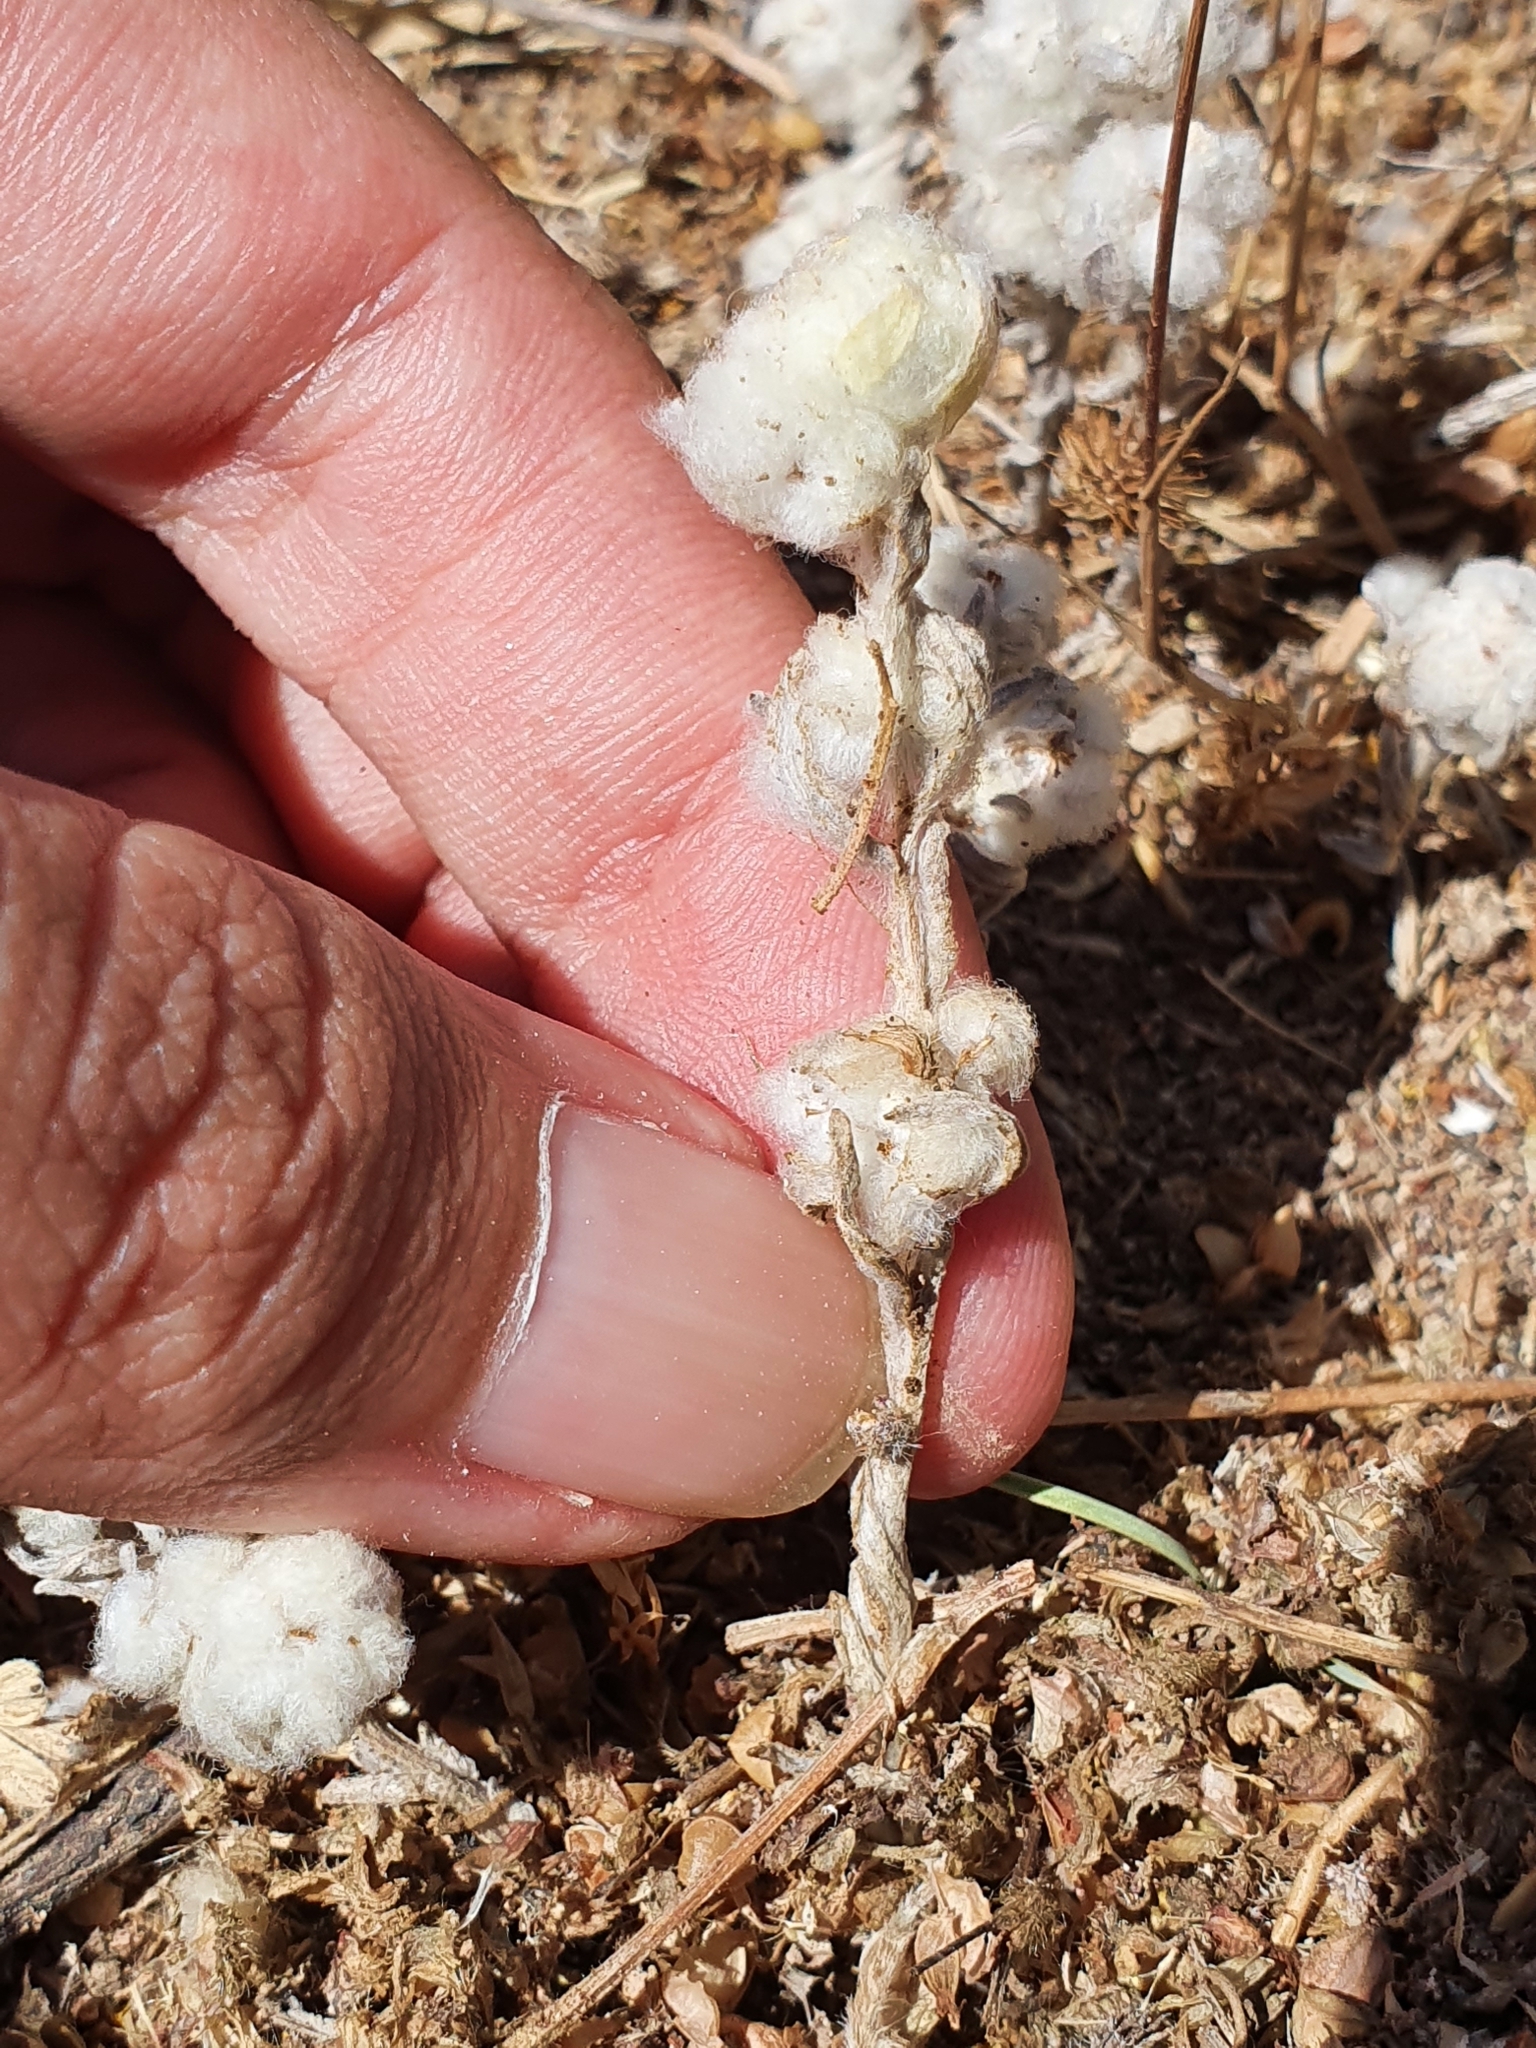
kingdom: Plantae
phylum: Tracheophyta
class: Magnoliopsida
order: Asterales
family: Asteraceae
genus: Bombycilaena
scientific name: Bombycilaena discolor
